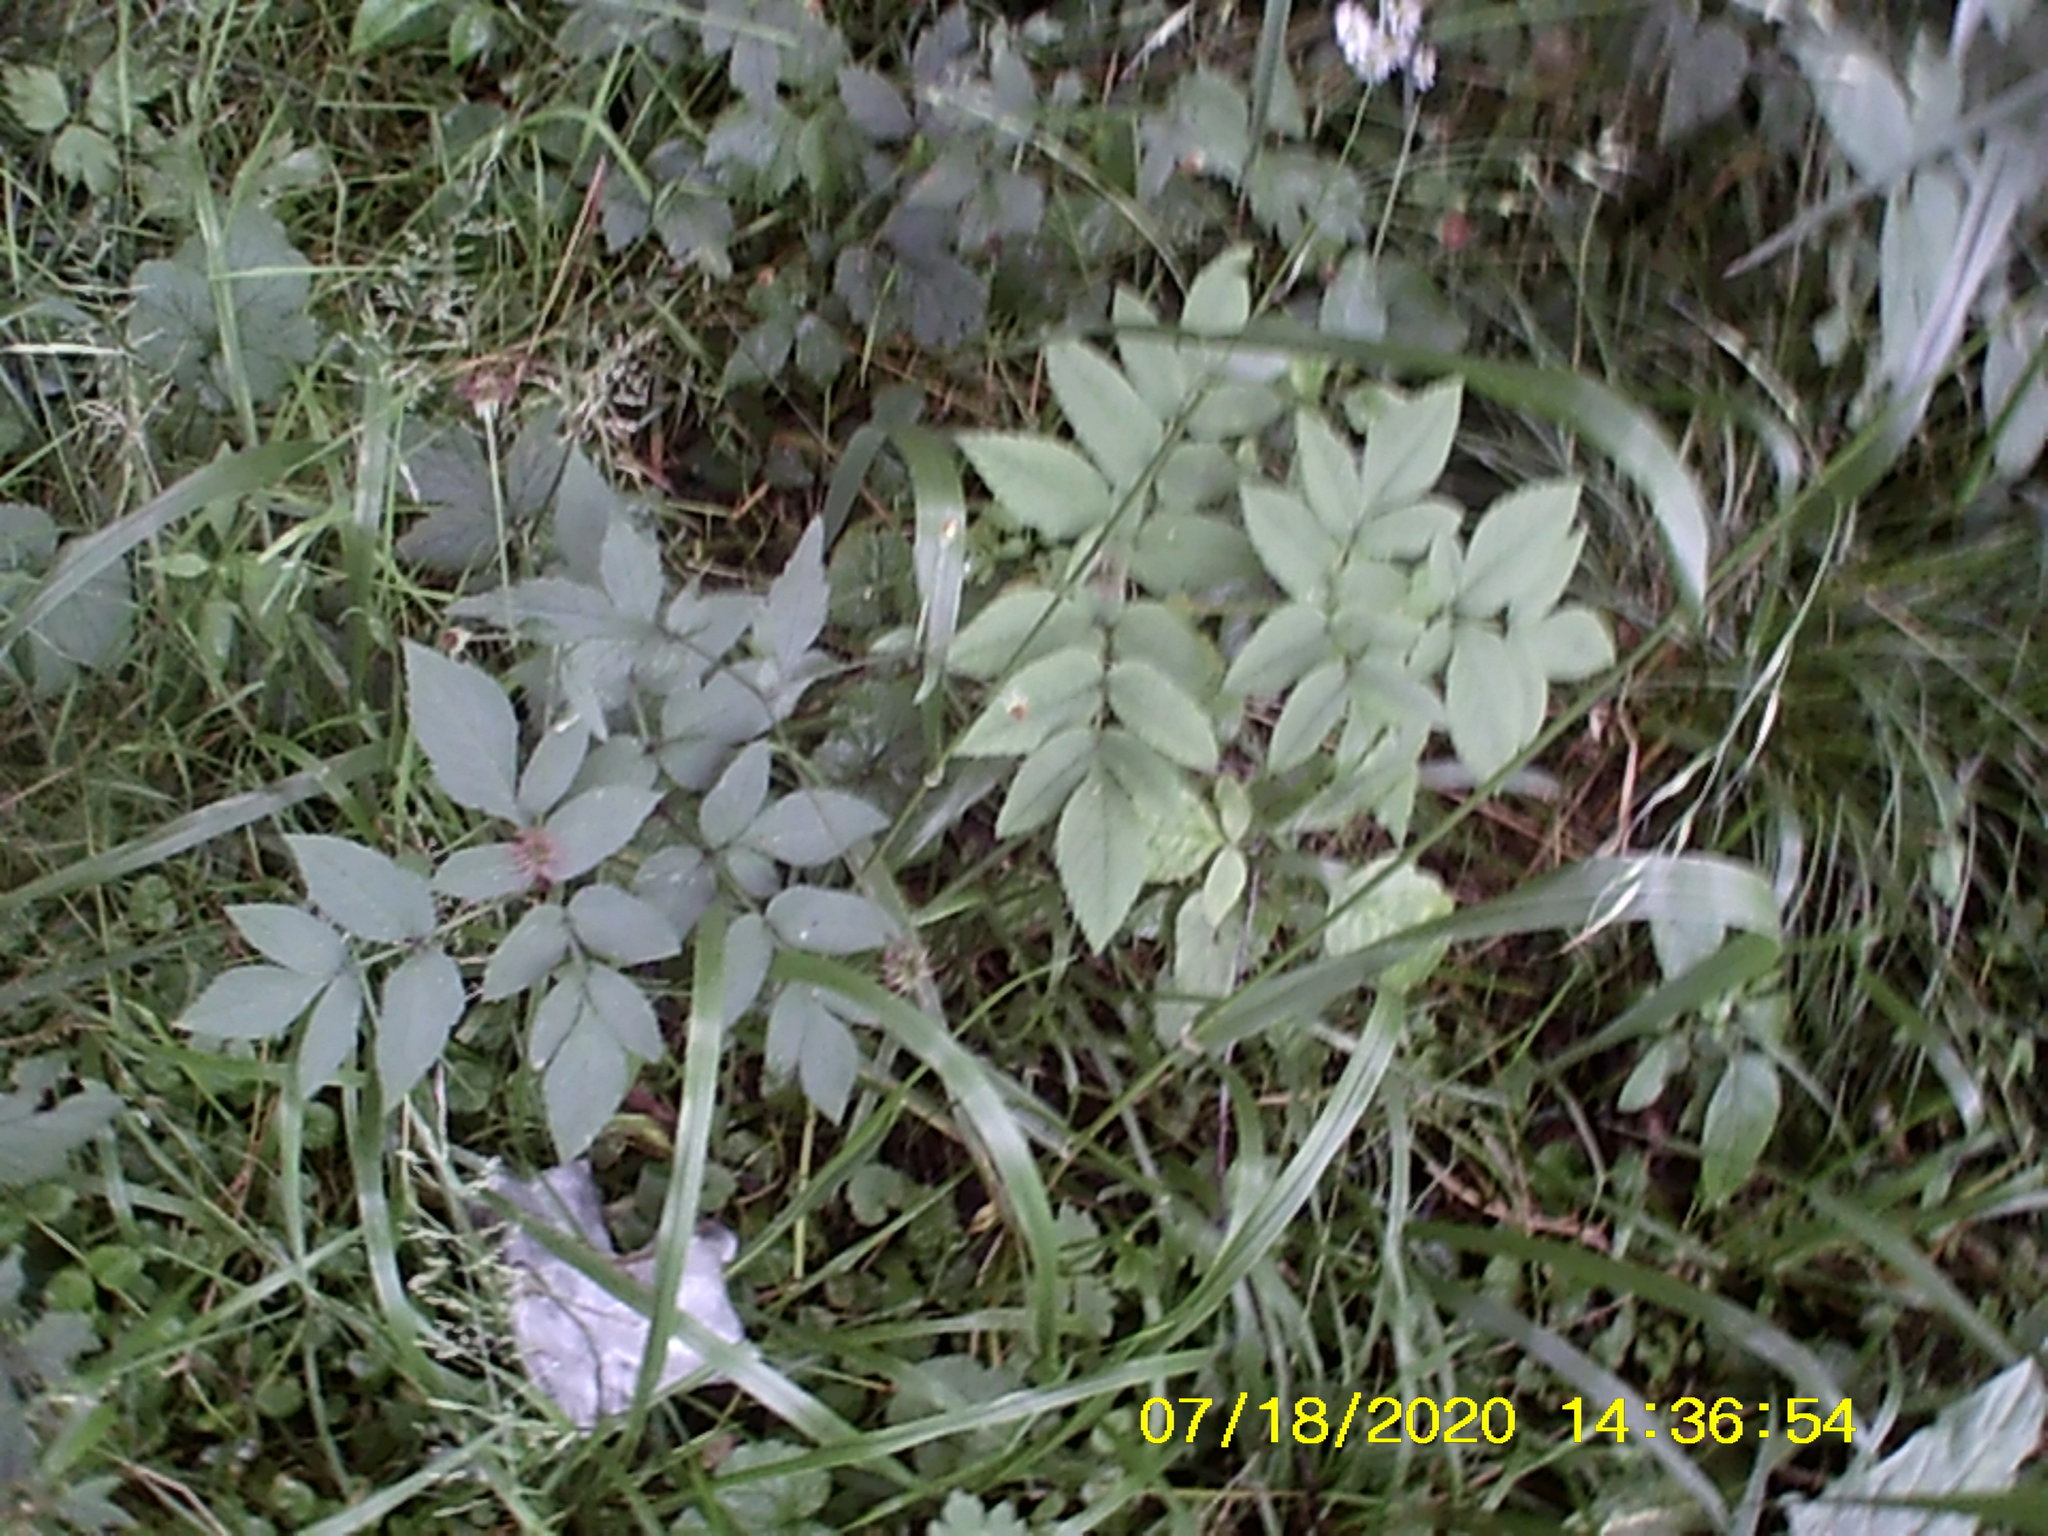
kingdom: Plantae
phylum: Tracheophyta
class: Magnoliopsida
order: Apiales
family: Apiaceae
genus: Angelica
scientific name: Angelica sylvestris
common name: Wild angelica
